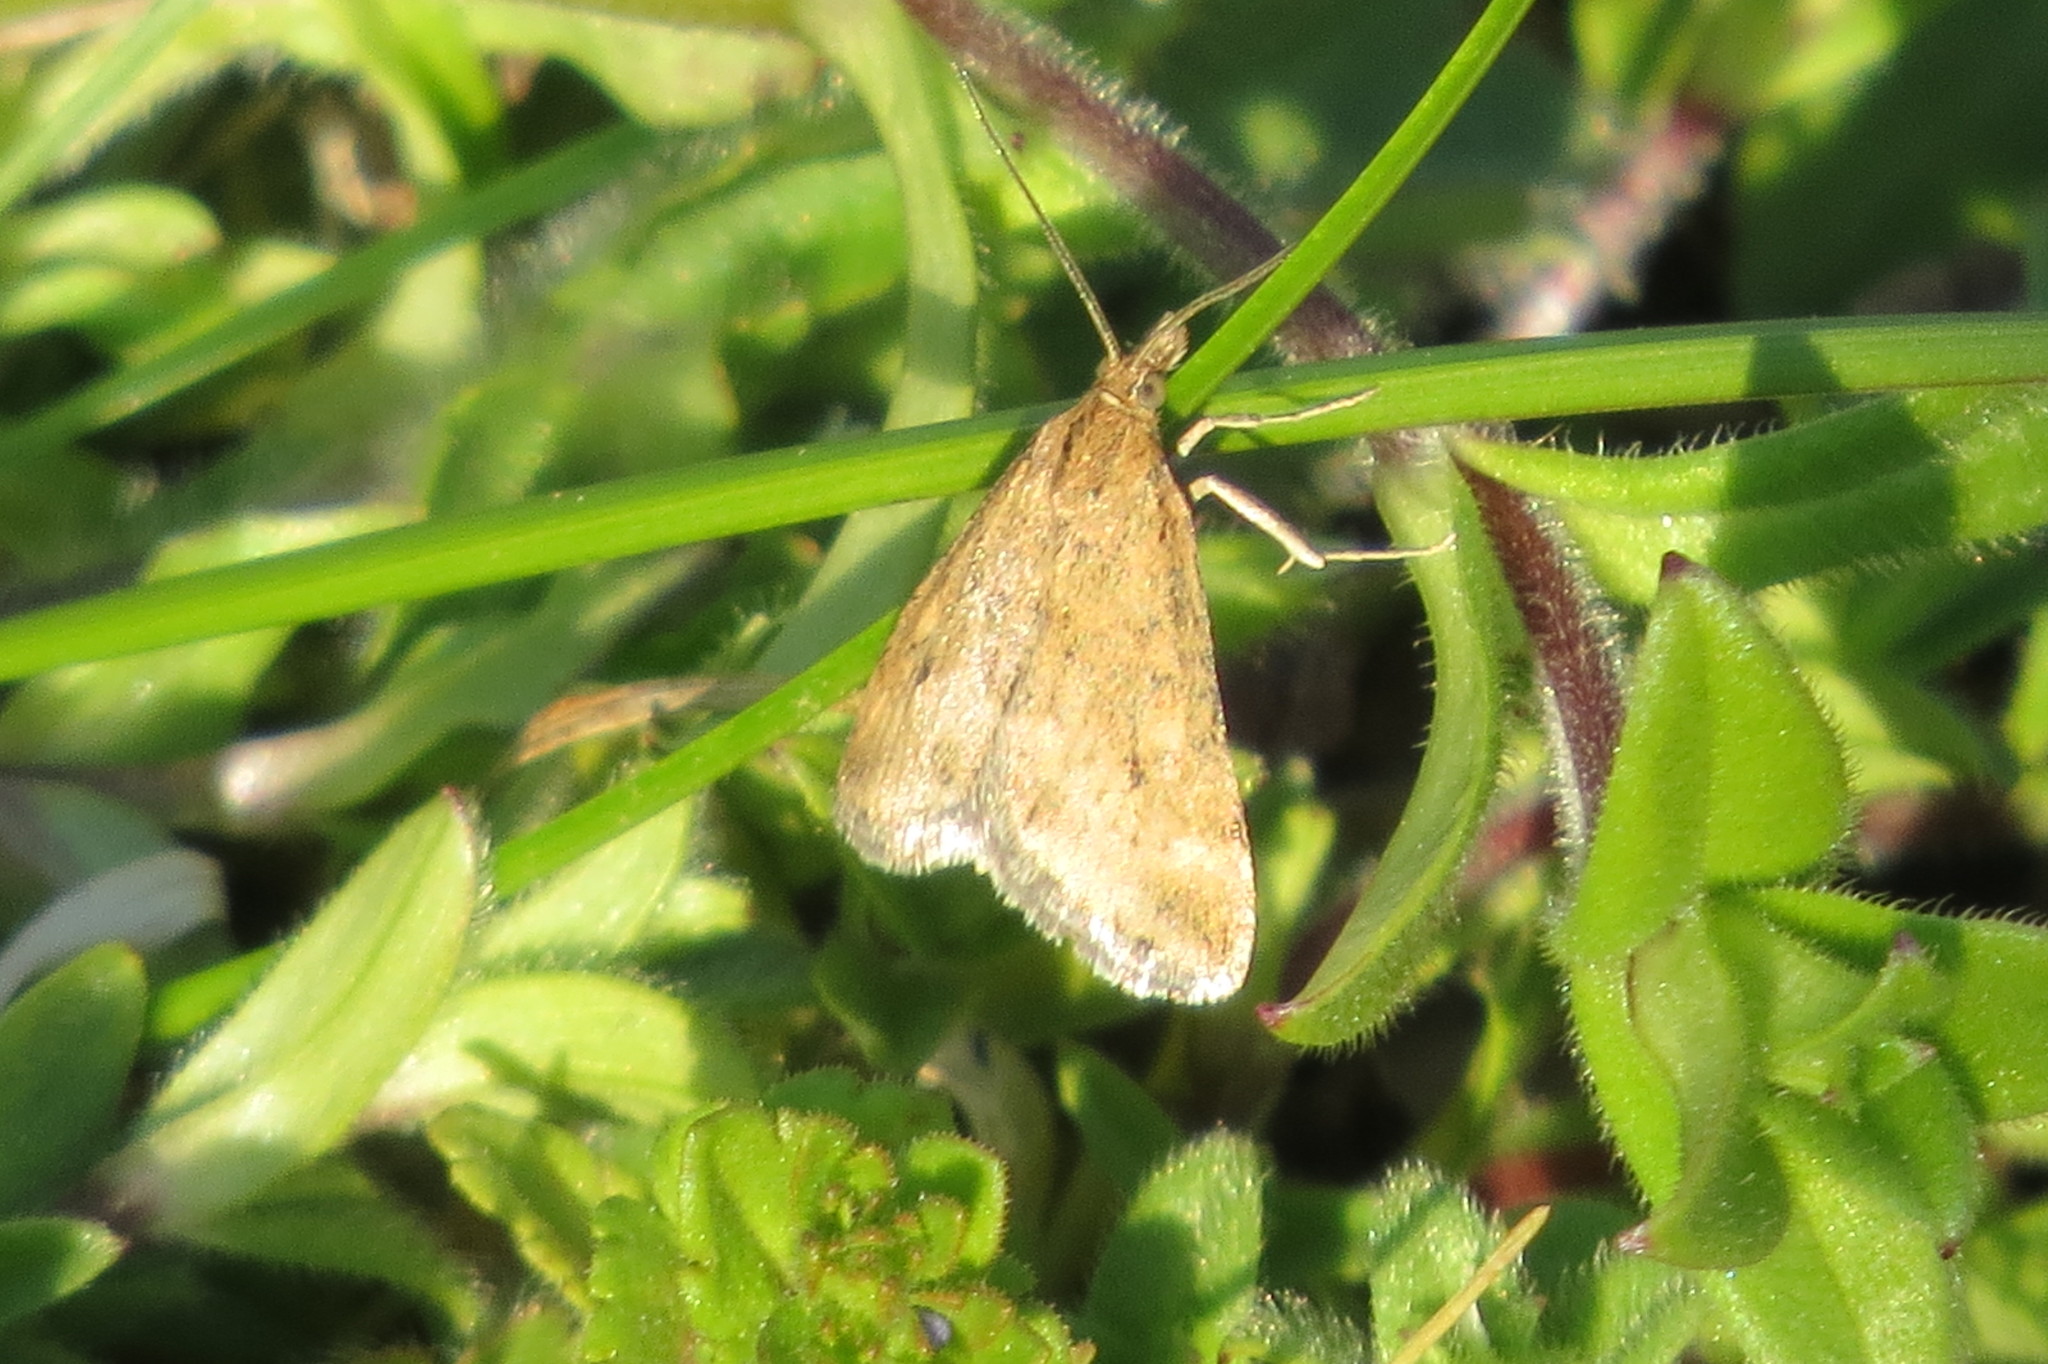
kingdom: Animalia
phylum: Arthropoda
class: Insecta
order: Lepidoptera
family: Crambidae
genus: Pyrausta
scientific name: Pyrausta despicata
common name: Straw-barred pearl
